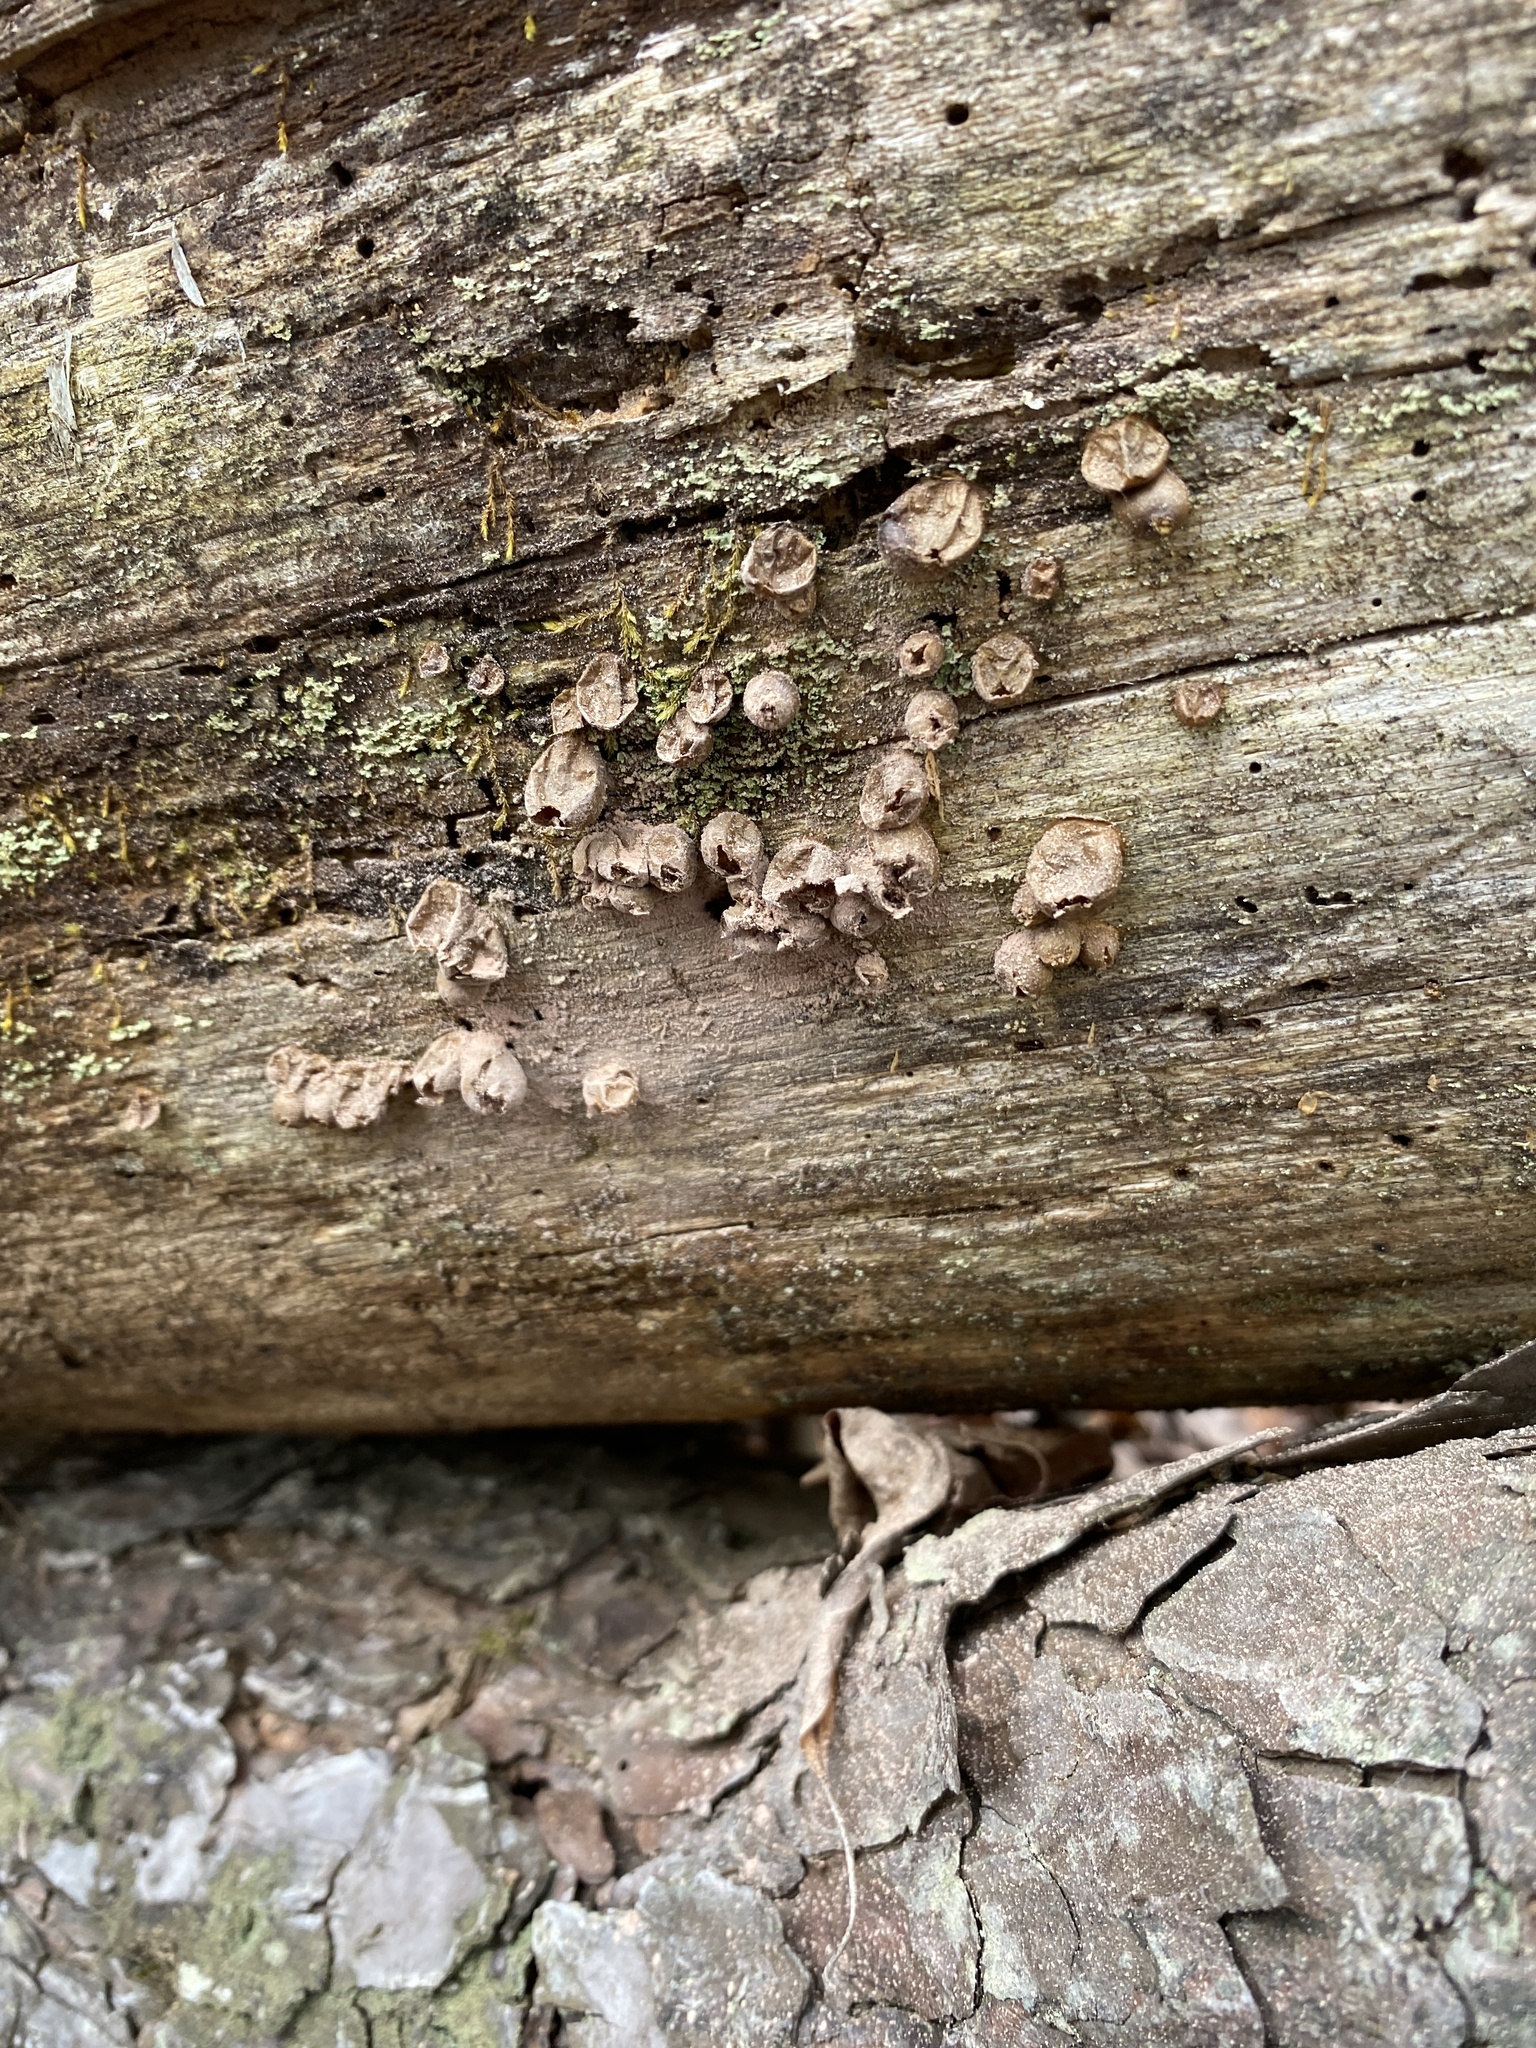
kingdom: Fungi
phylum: Basidiomycota
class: Agaricomycetes
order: Agaricales
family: Lycoperdaceae
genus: Apioperdon
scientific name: Apioperdon pyriforme
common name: Pear-shaped puffball
